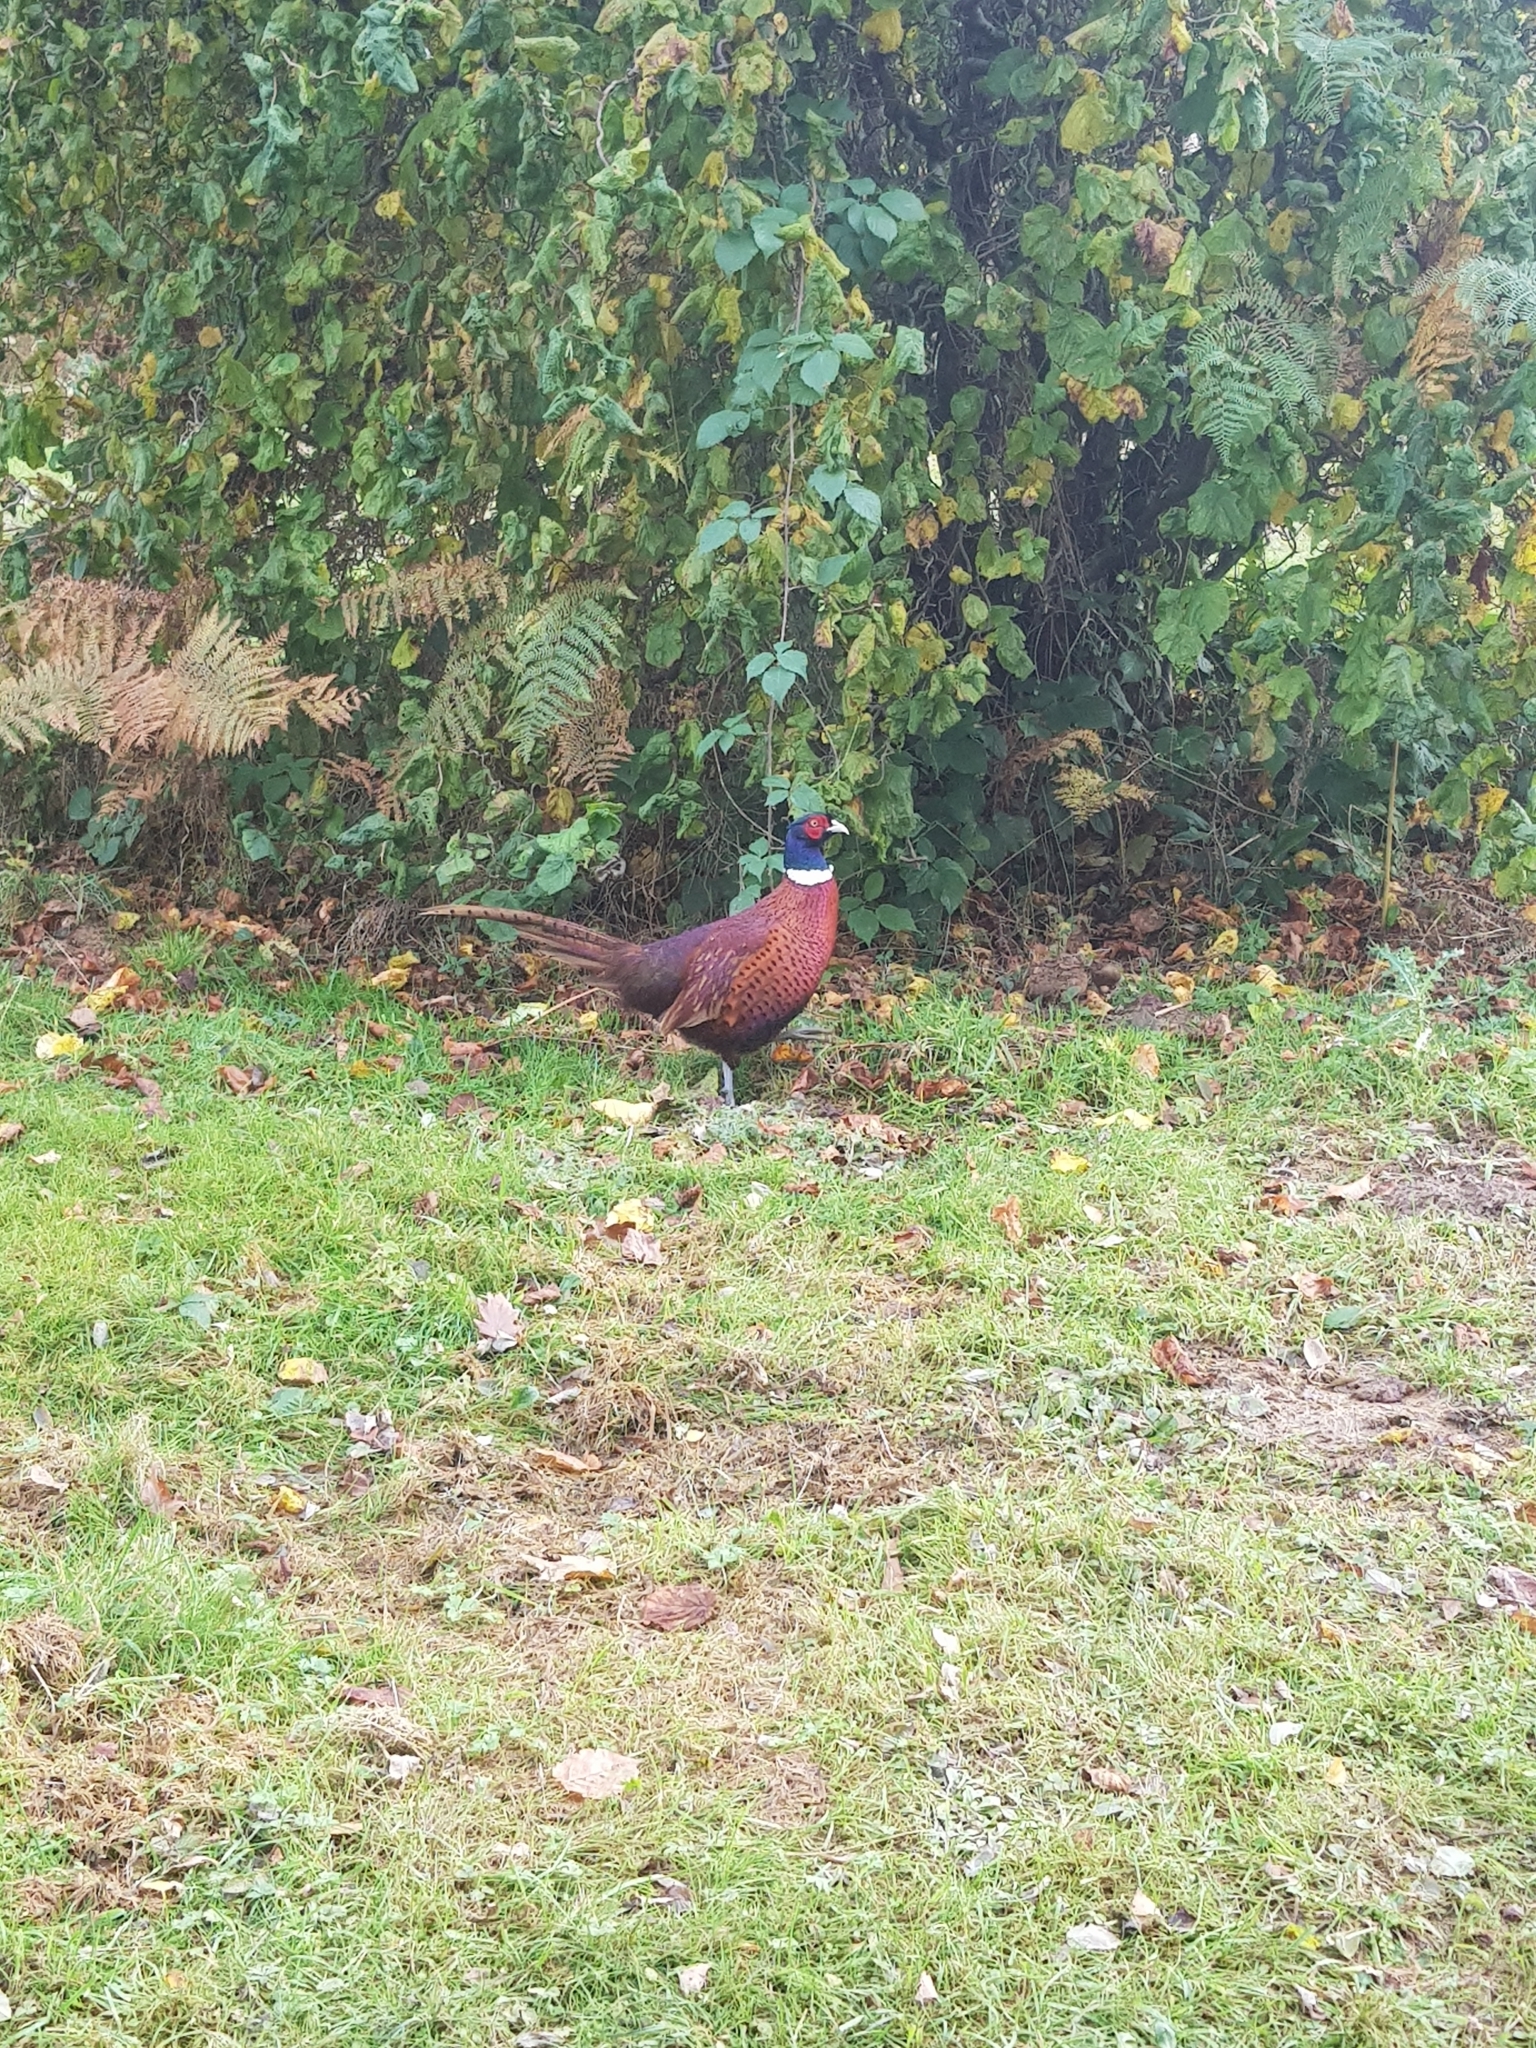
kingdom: Animalia
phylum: Chordata
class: Aves
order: Galliformes
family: Phasianidae
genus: Phasianus
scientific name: Phasianus colchicus
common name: Common pheasant
